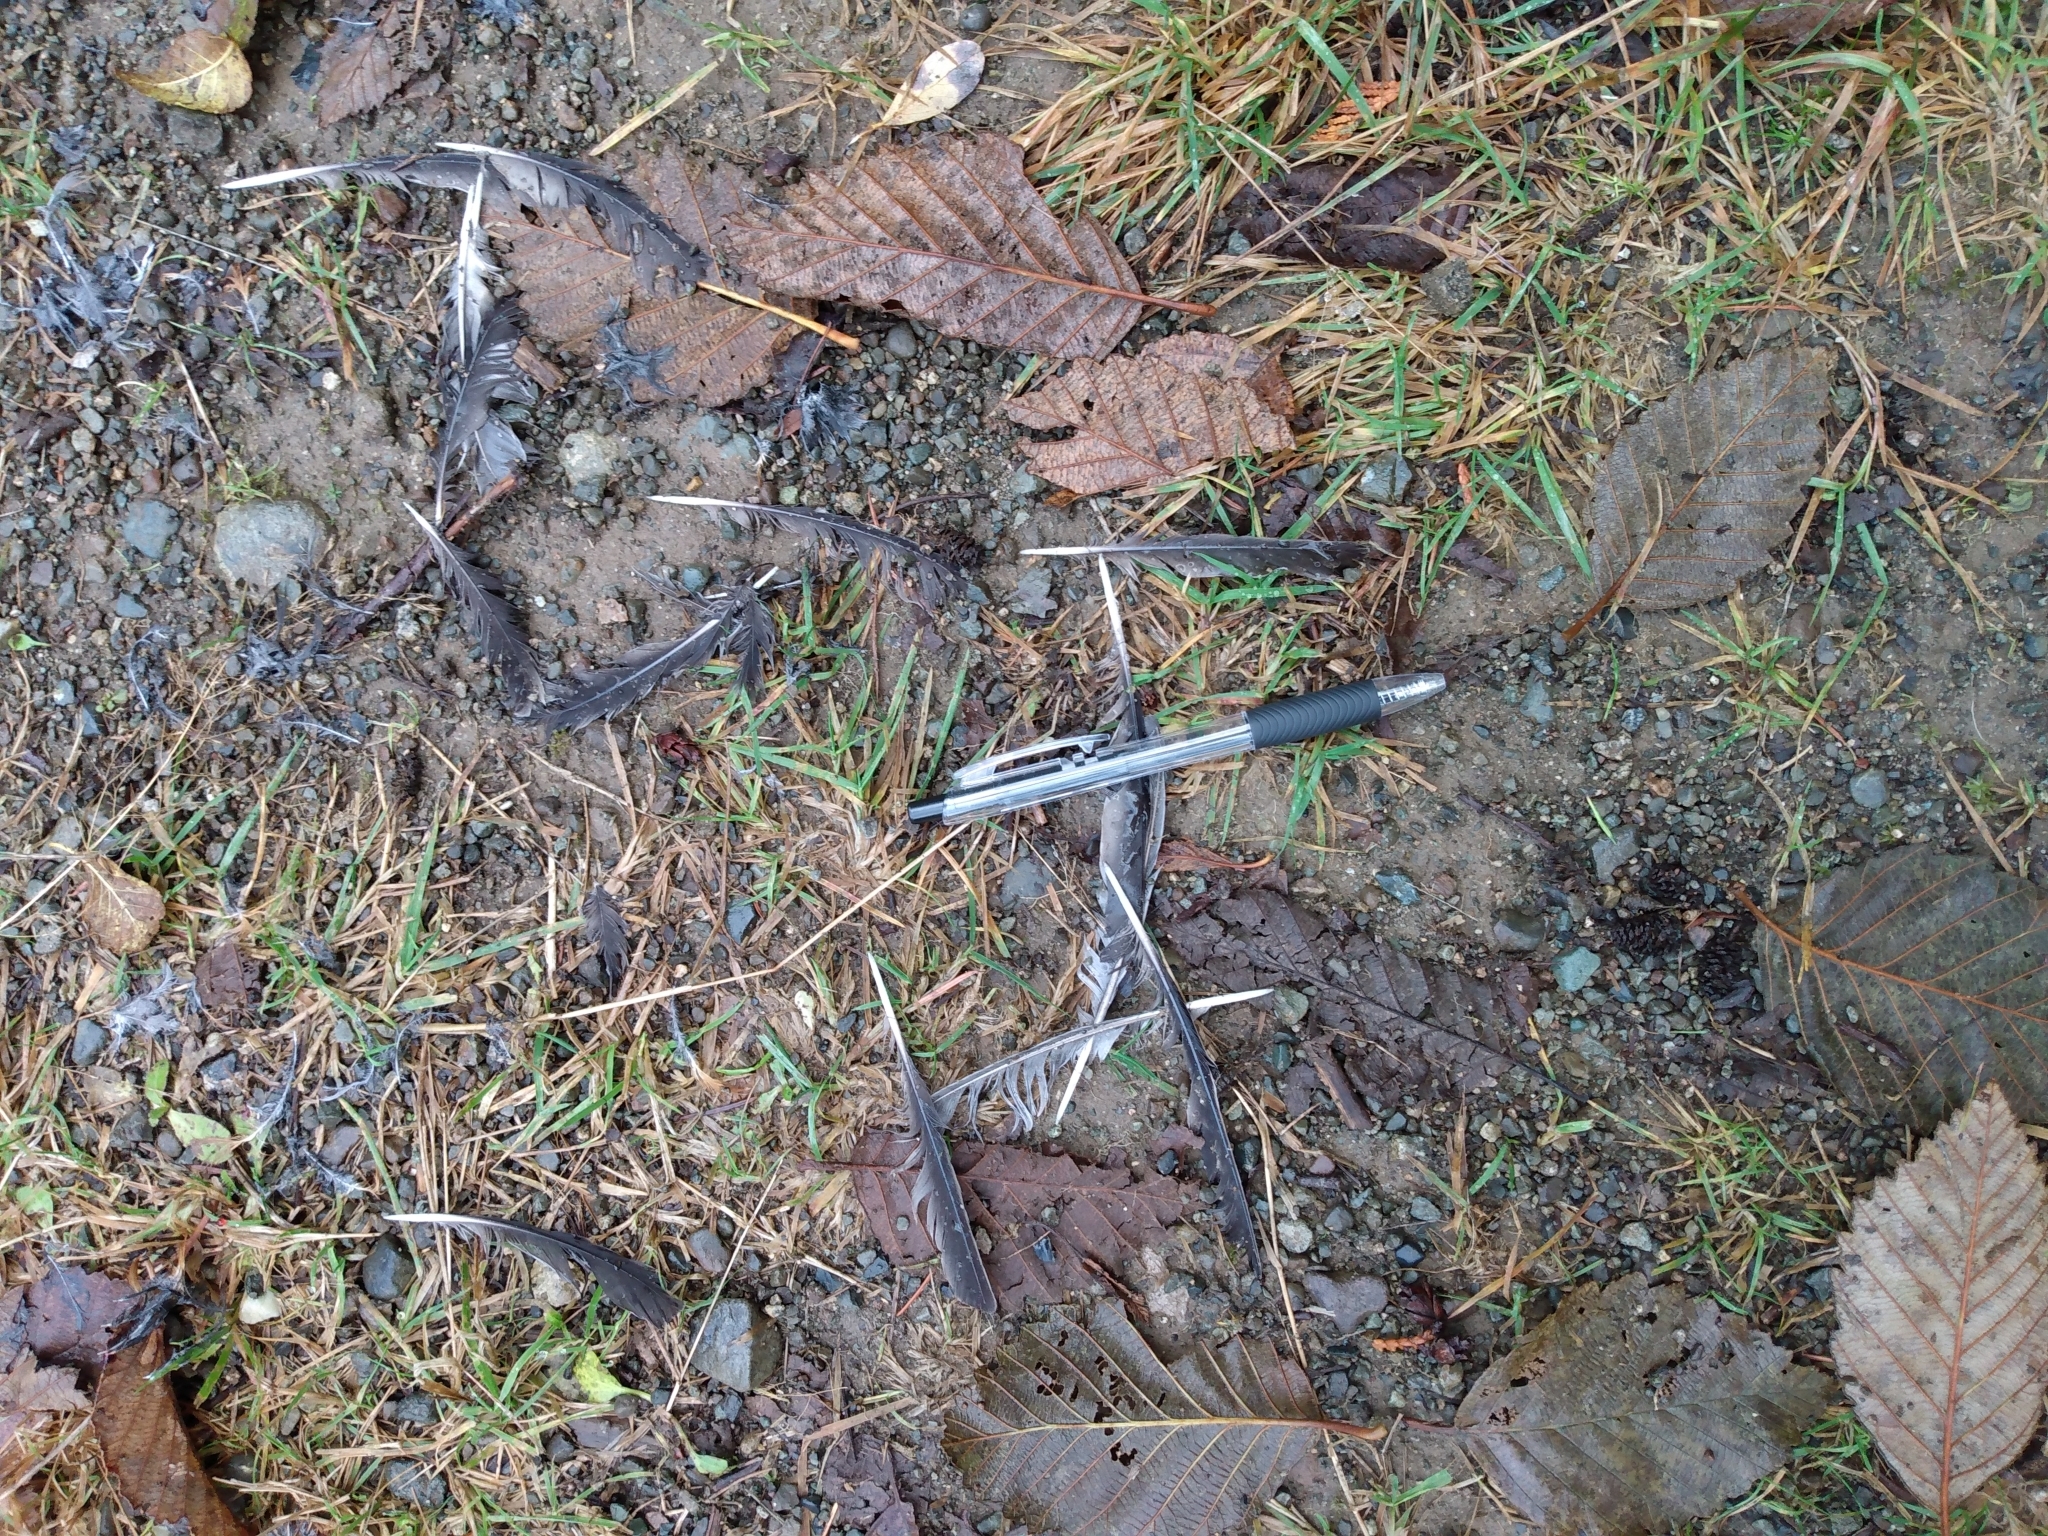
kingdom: Animalia
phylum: Chordata
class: Aves
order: Passeriformes
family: Turdidae
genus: Turdus
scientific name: Turdus migratorius
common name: American robin
